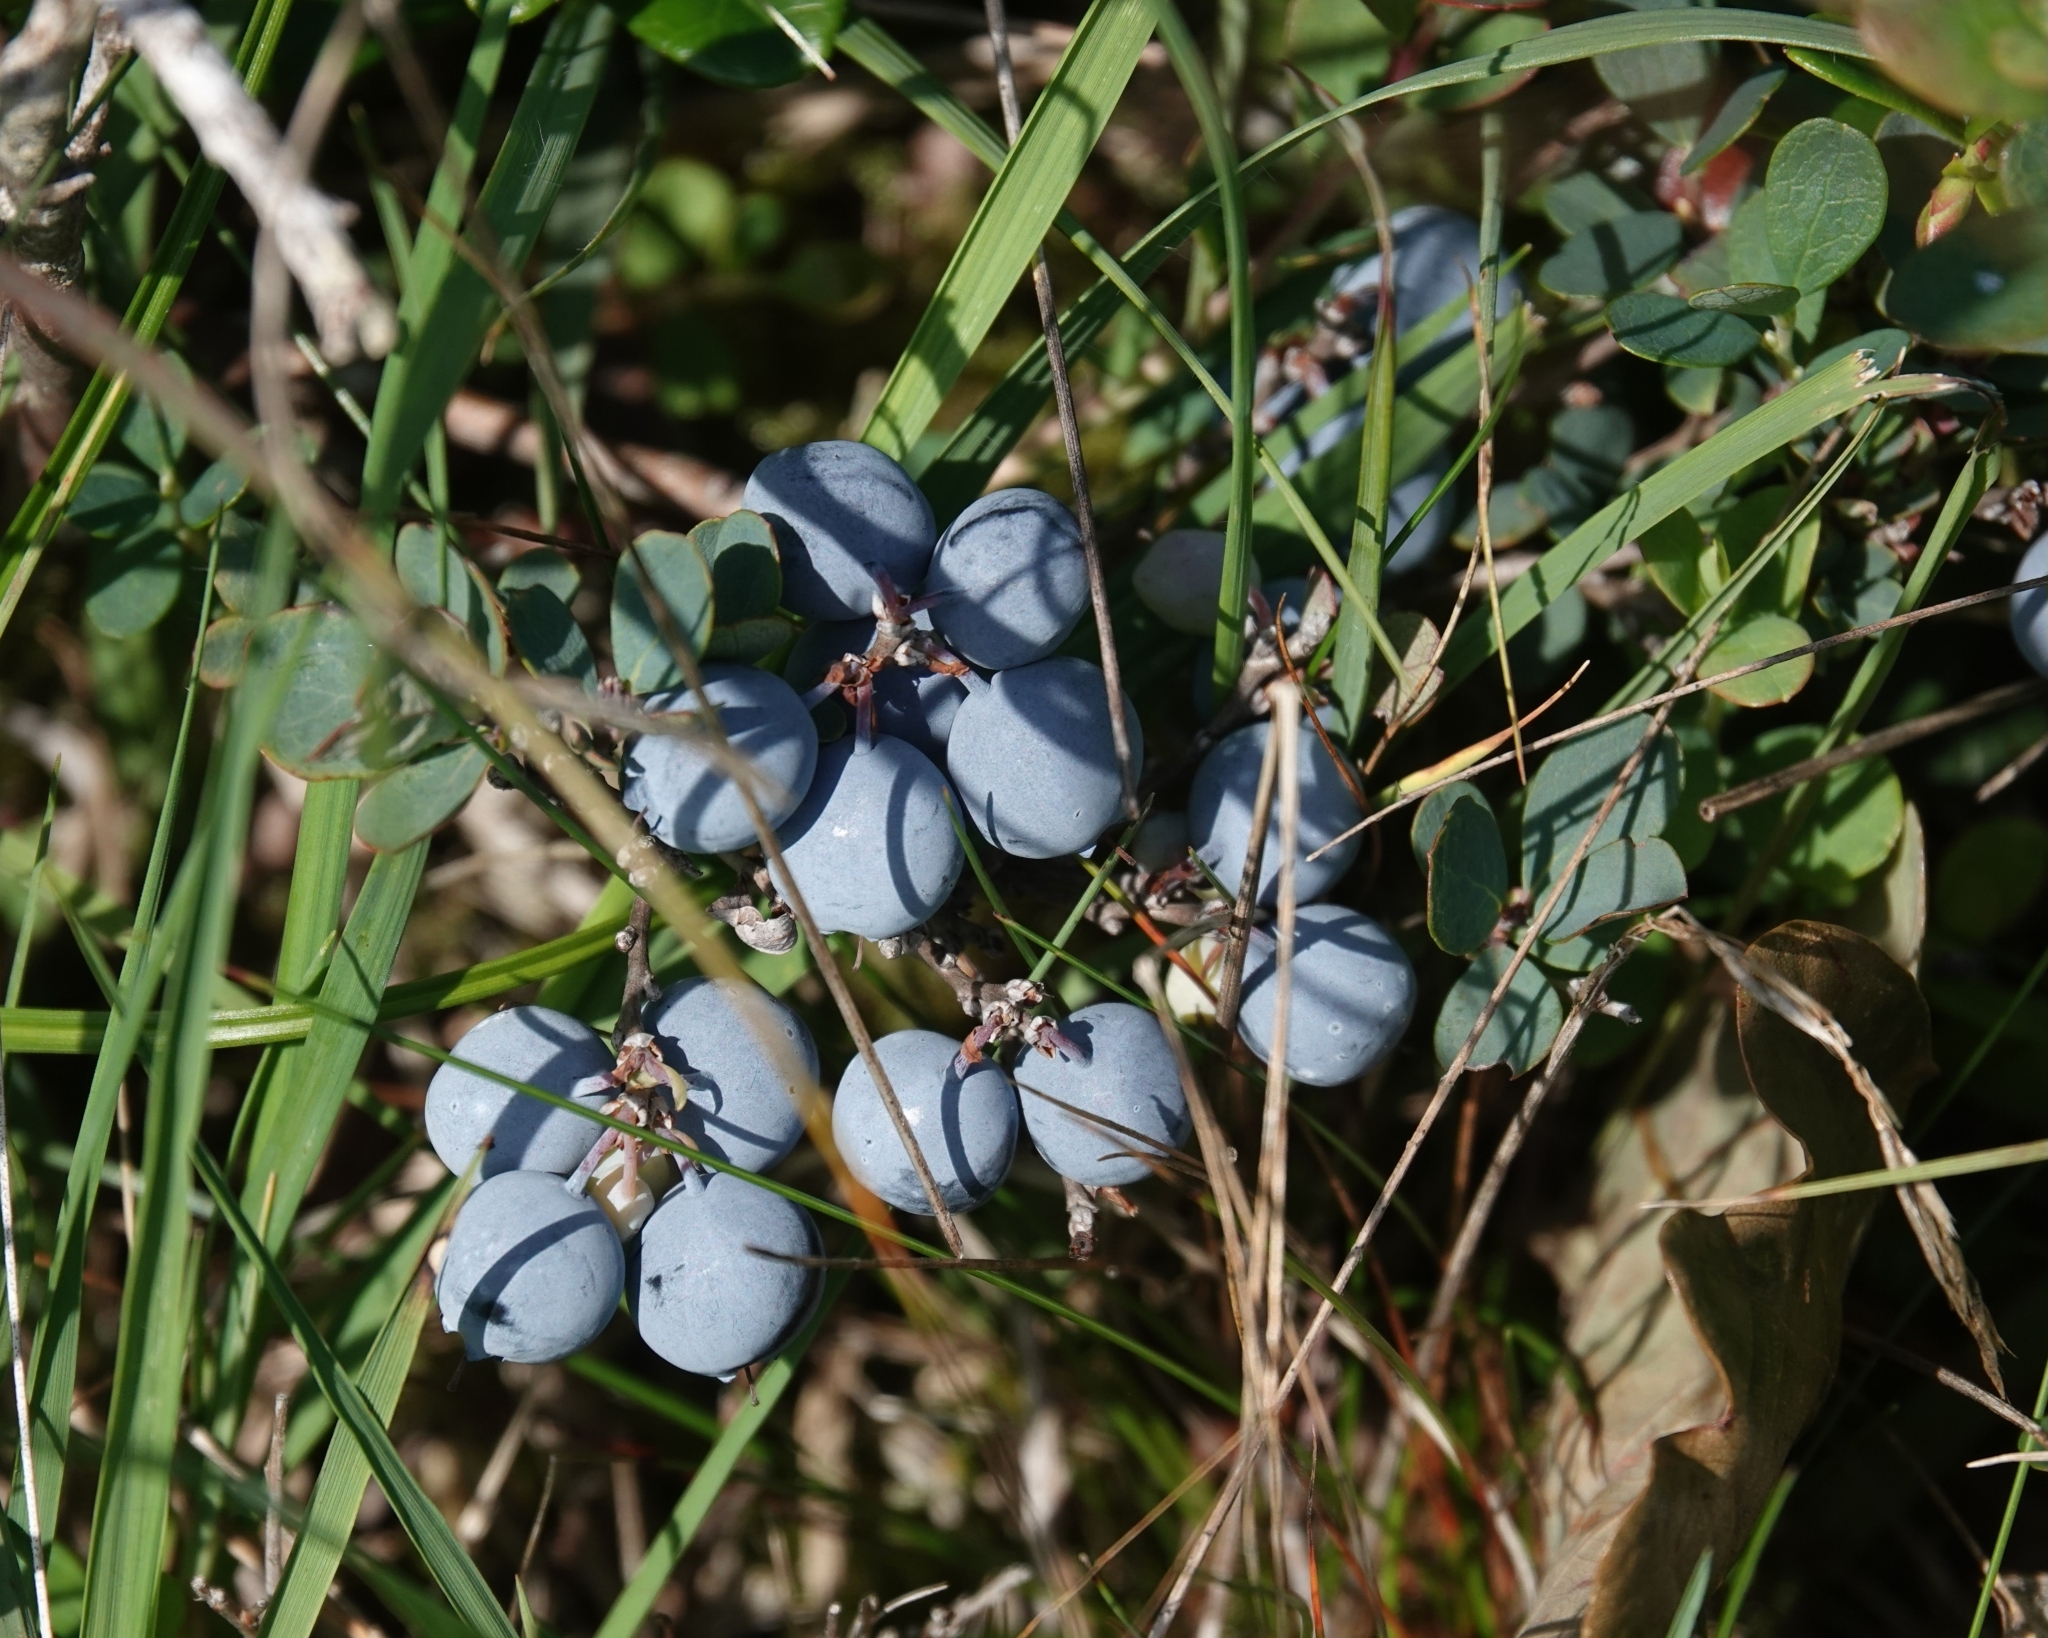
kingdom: Plantae
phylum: Tracheophyta
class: Magnoliopsida
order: Ericales
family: Ericaceae
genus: Vaccinium
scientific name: Vaccinium uliginosum
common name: Bog bilberry
